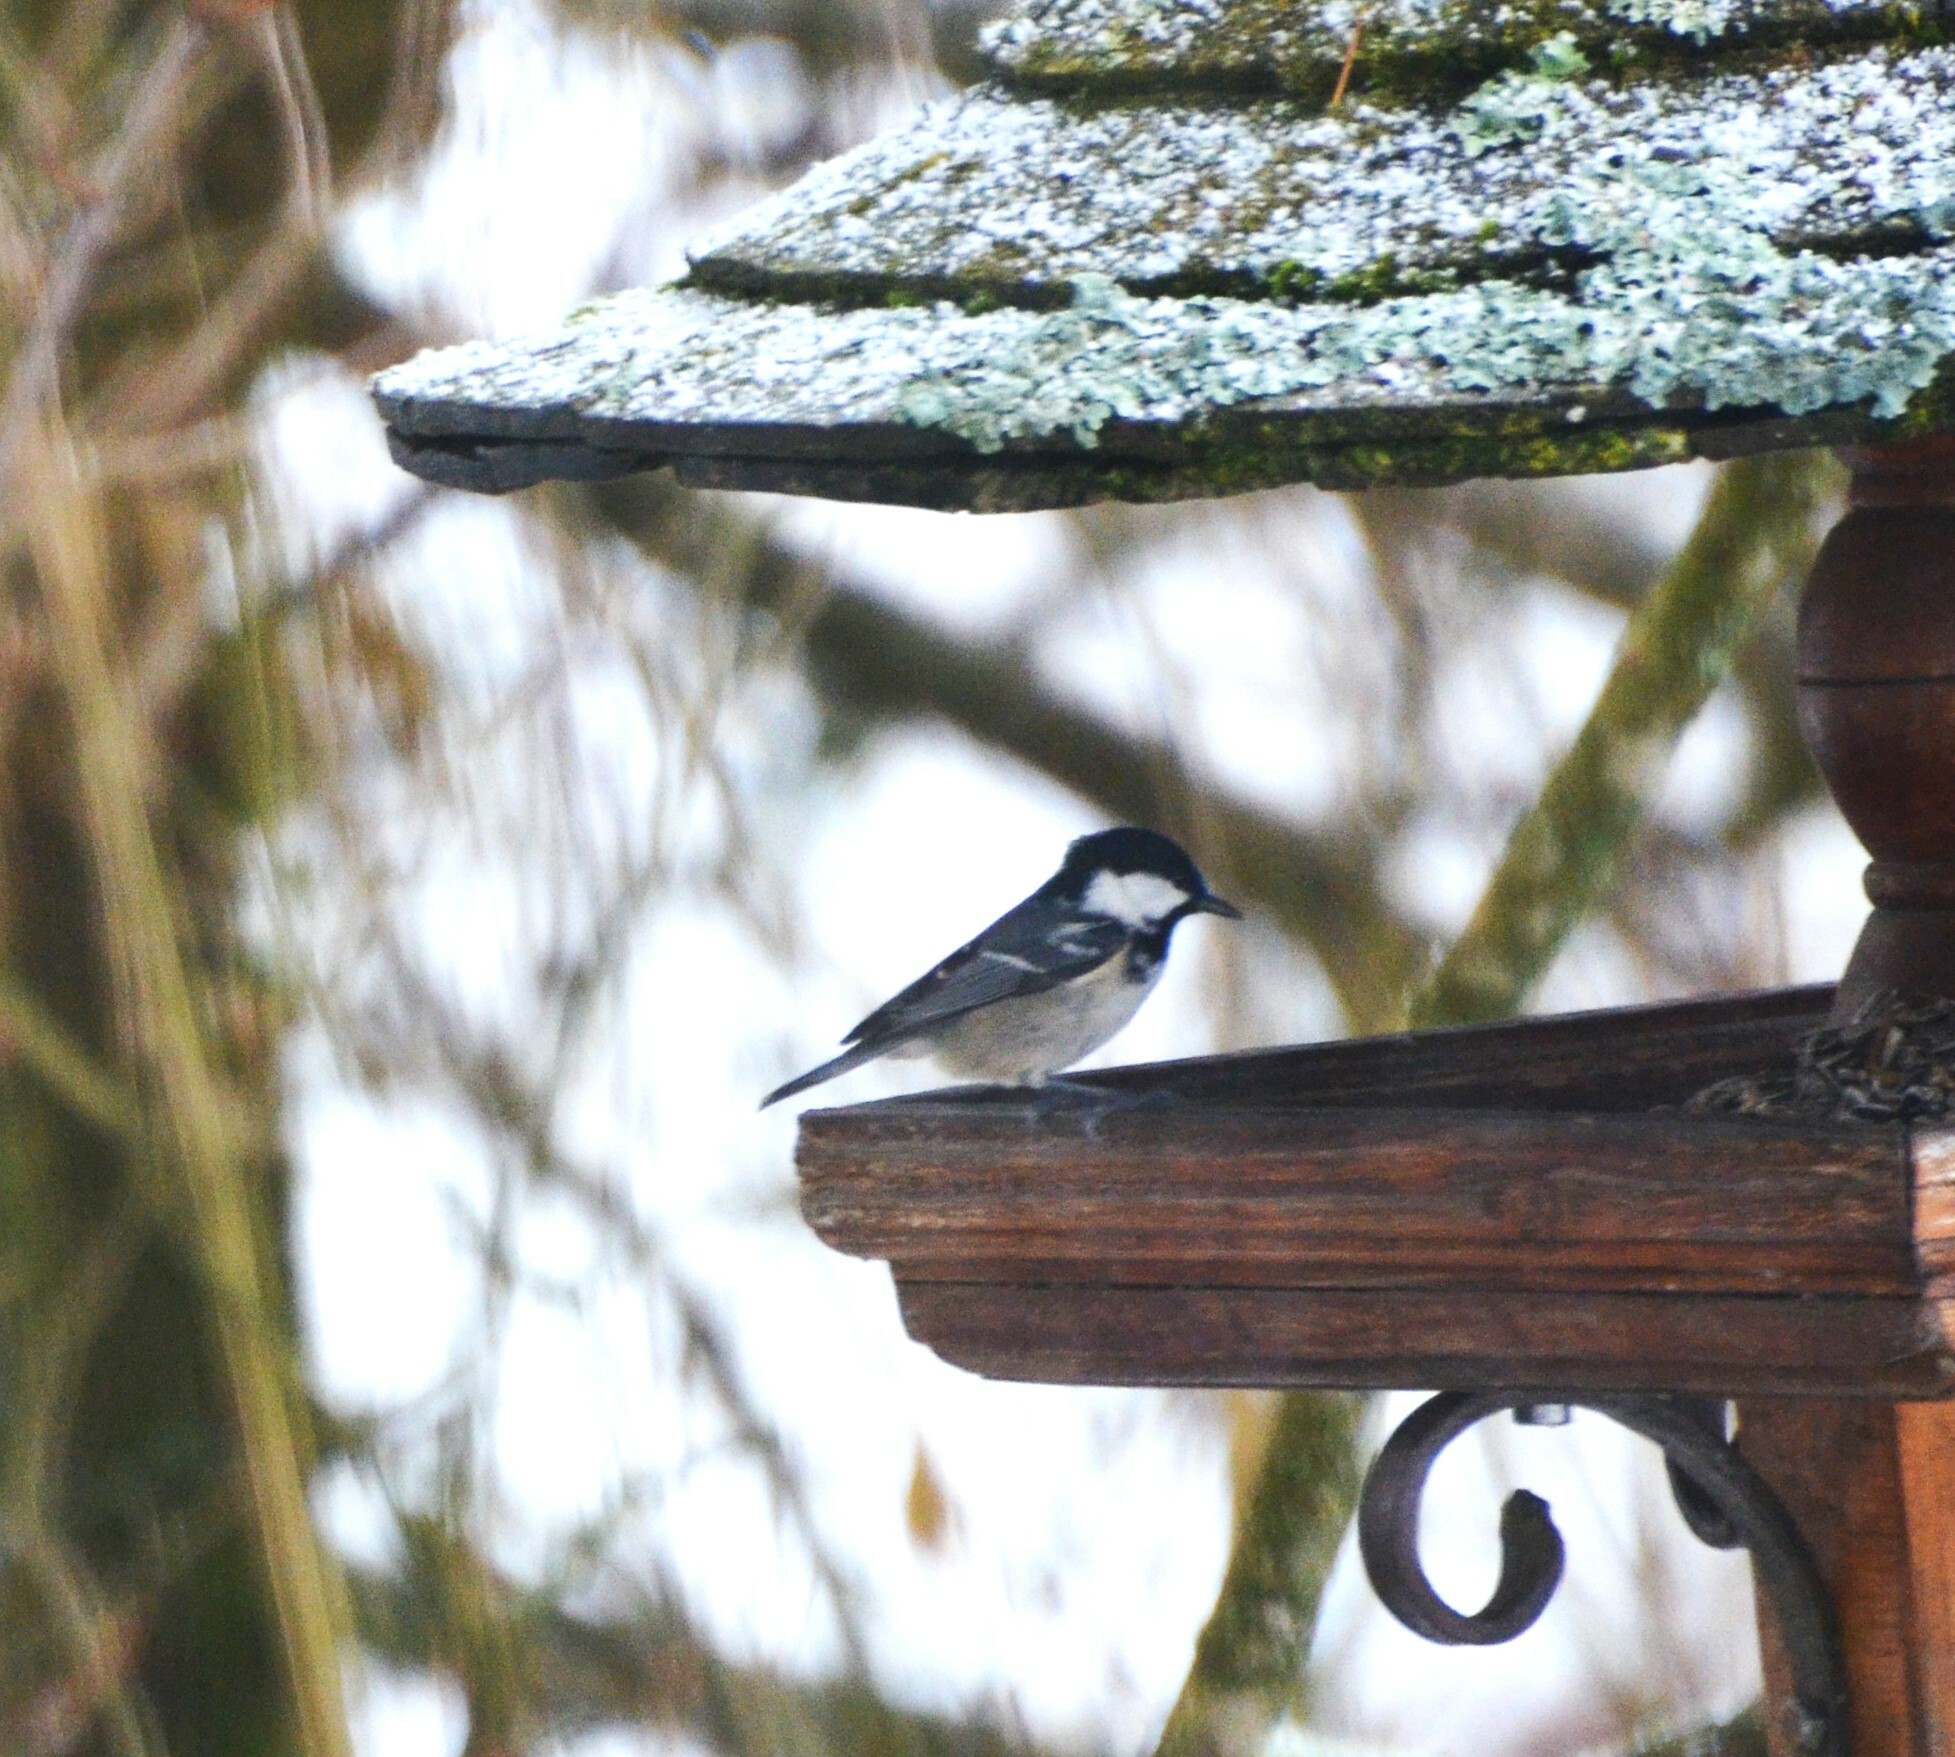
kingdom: Animalia
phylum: Chordata
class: Aves
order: Passeriformes
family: Paridae
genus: Periparus
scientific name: Periparus ater
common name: Coal tit
